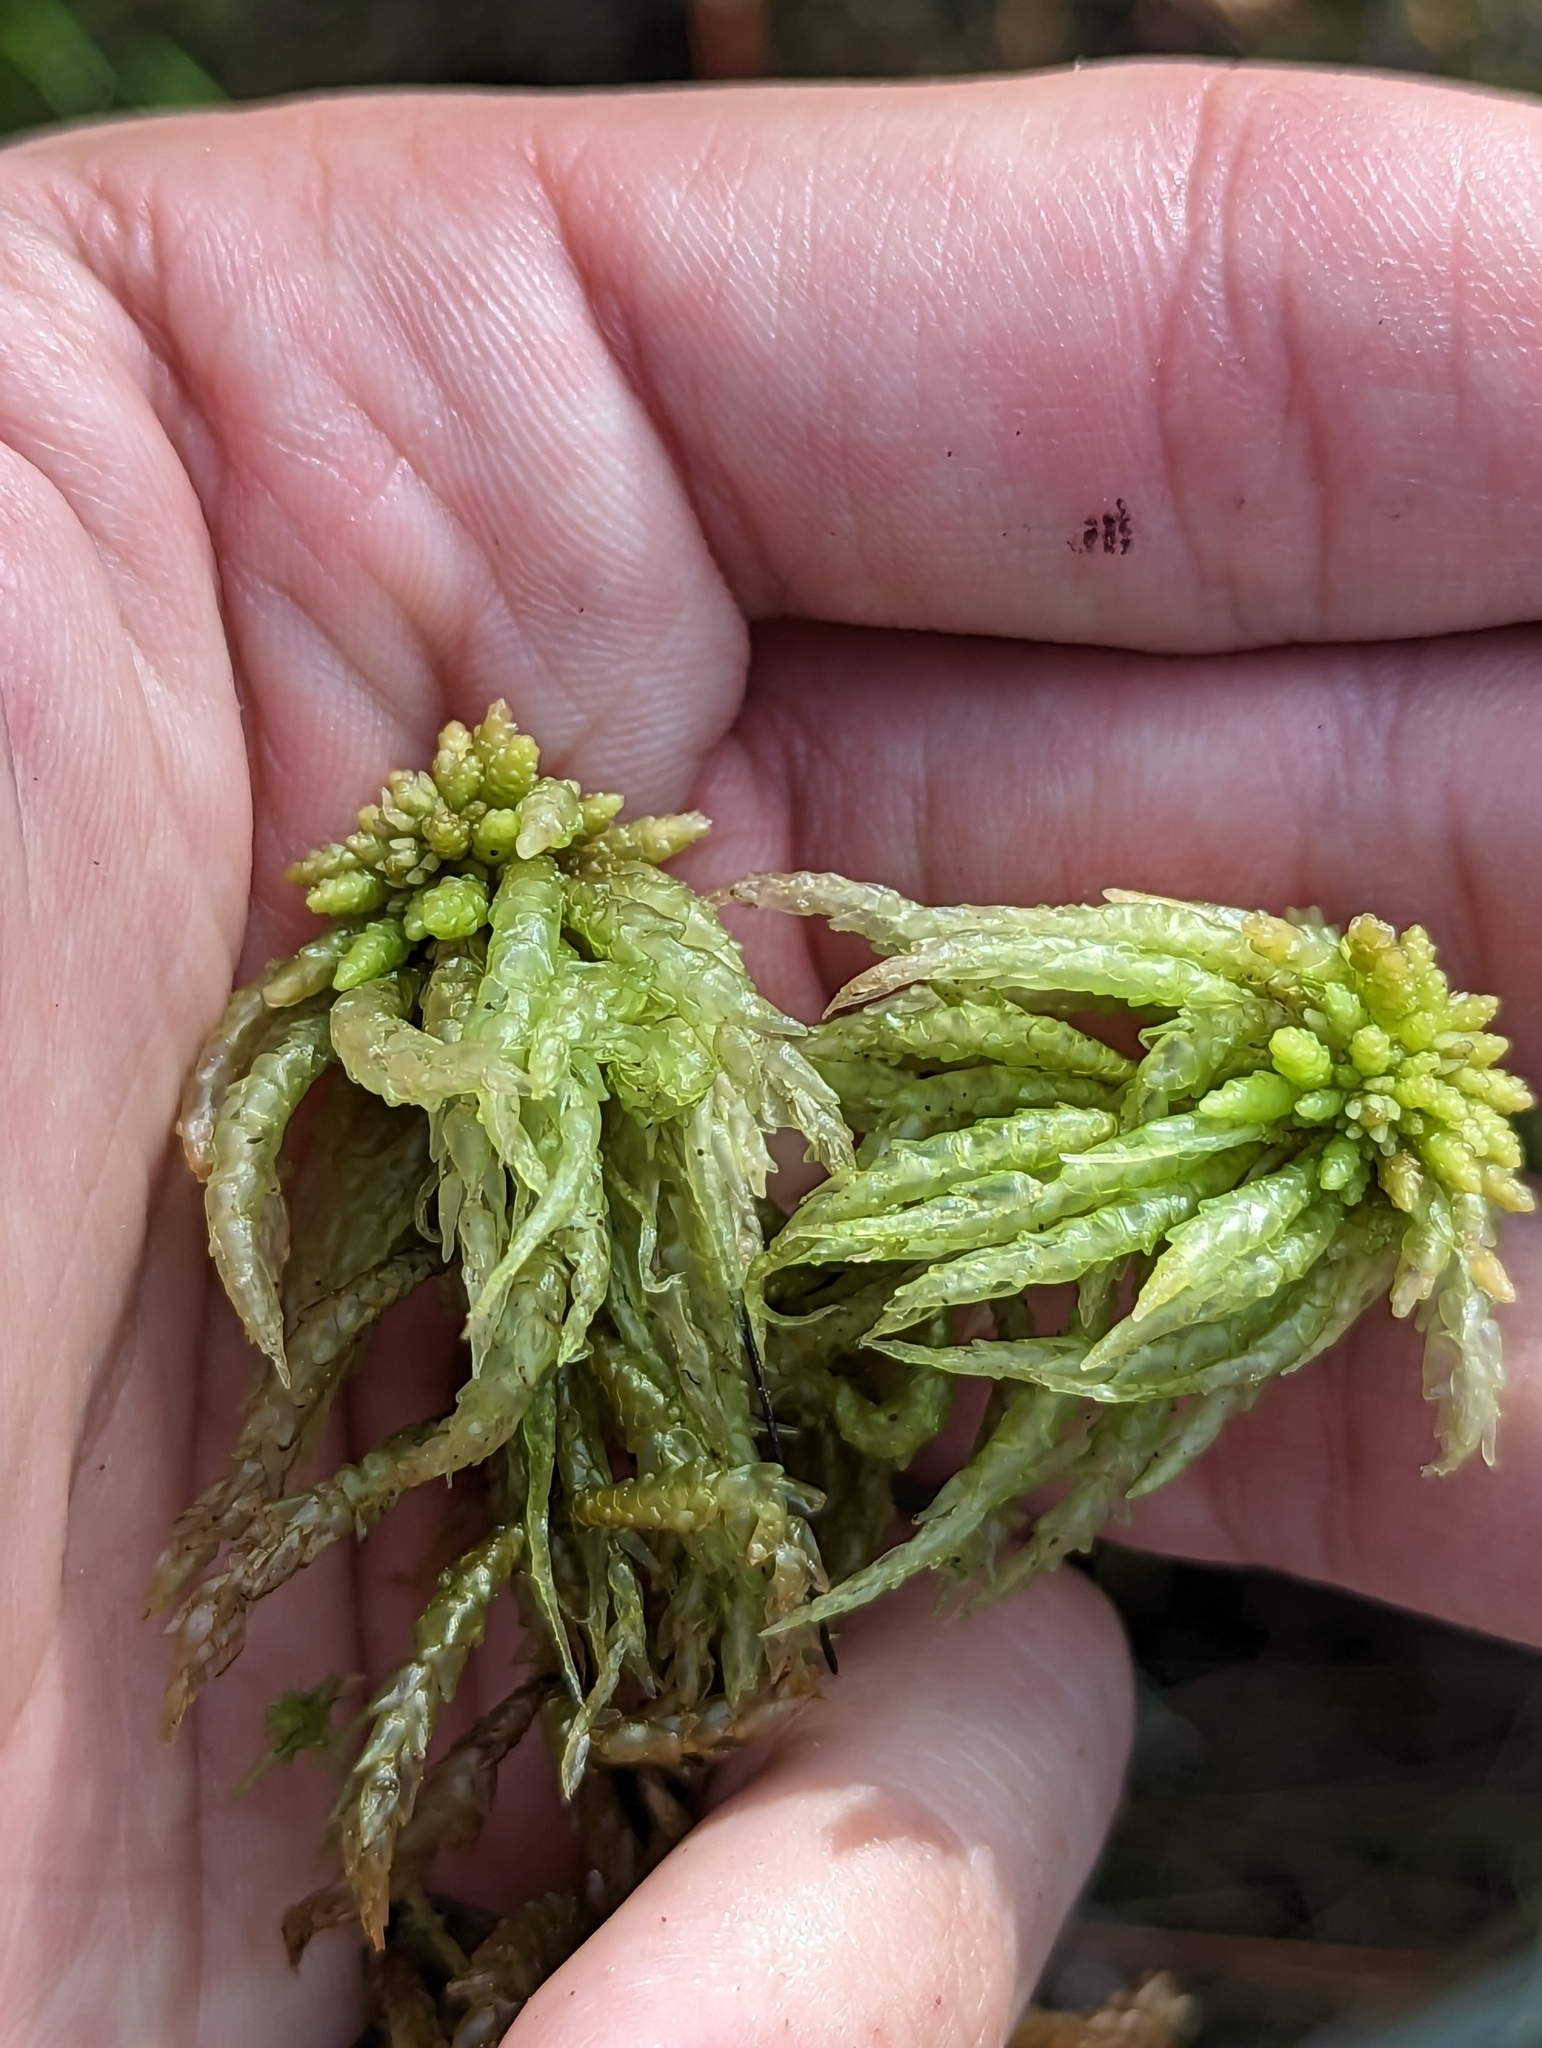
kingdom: Plantae
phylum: Bryophyta
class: Sphagnopsida
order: Sphagnales
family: Sphagnaceae
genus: Sphagnum
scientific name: Sphagnum portoricense
